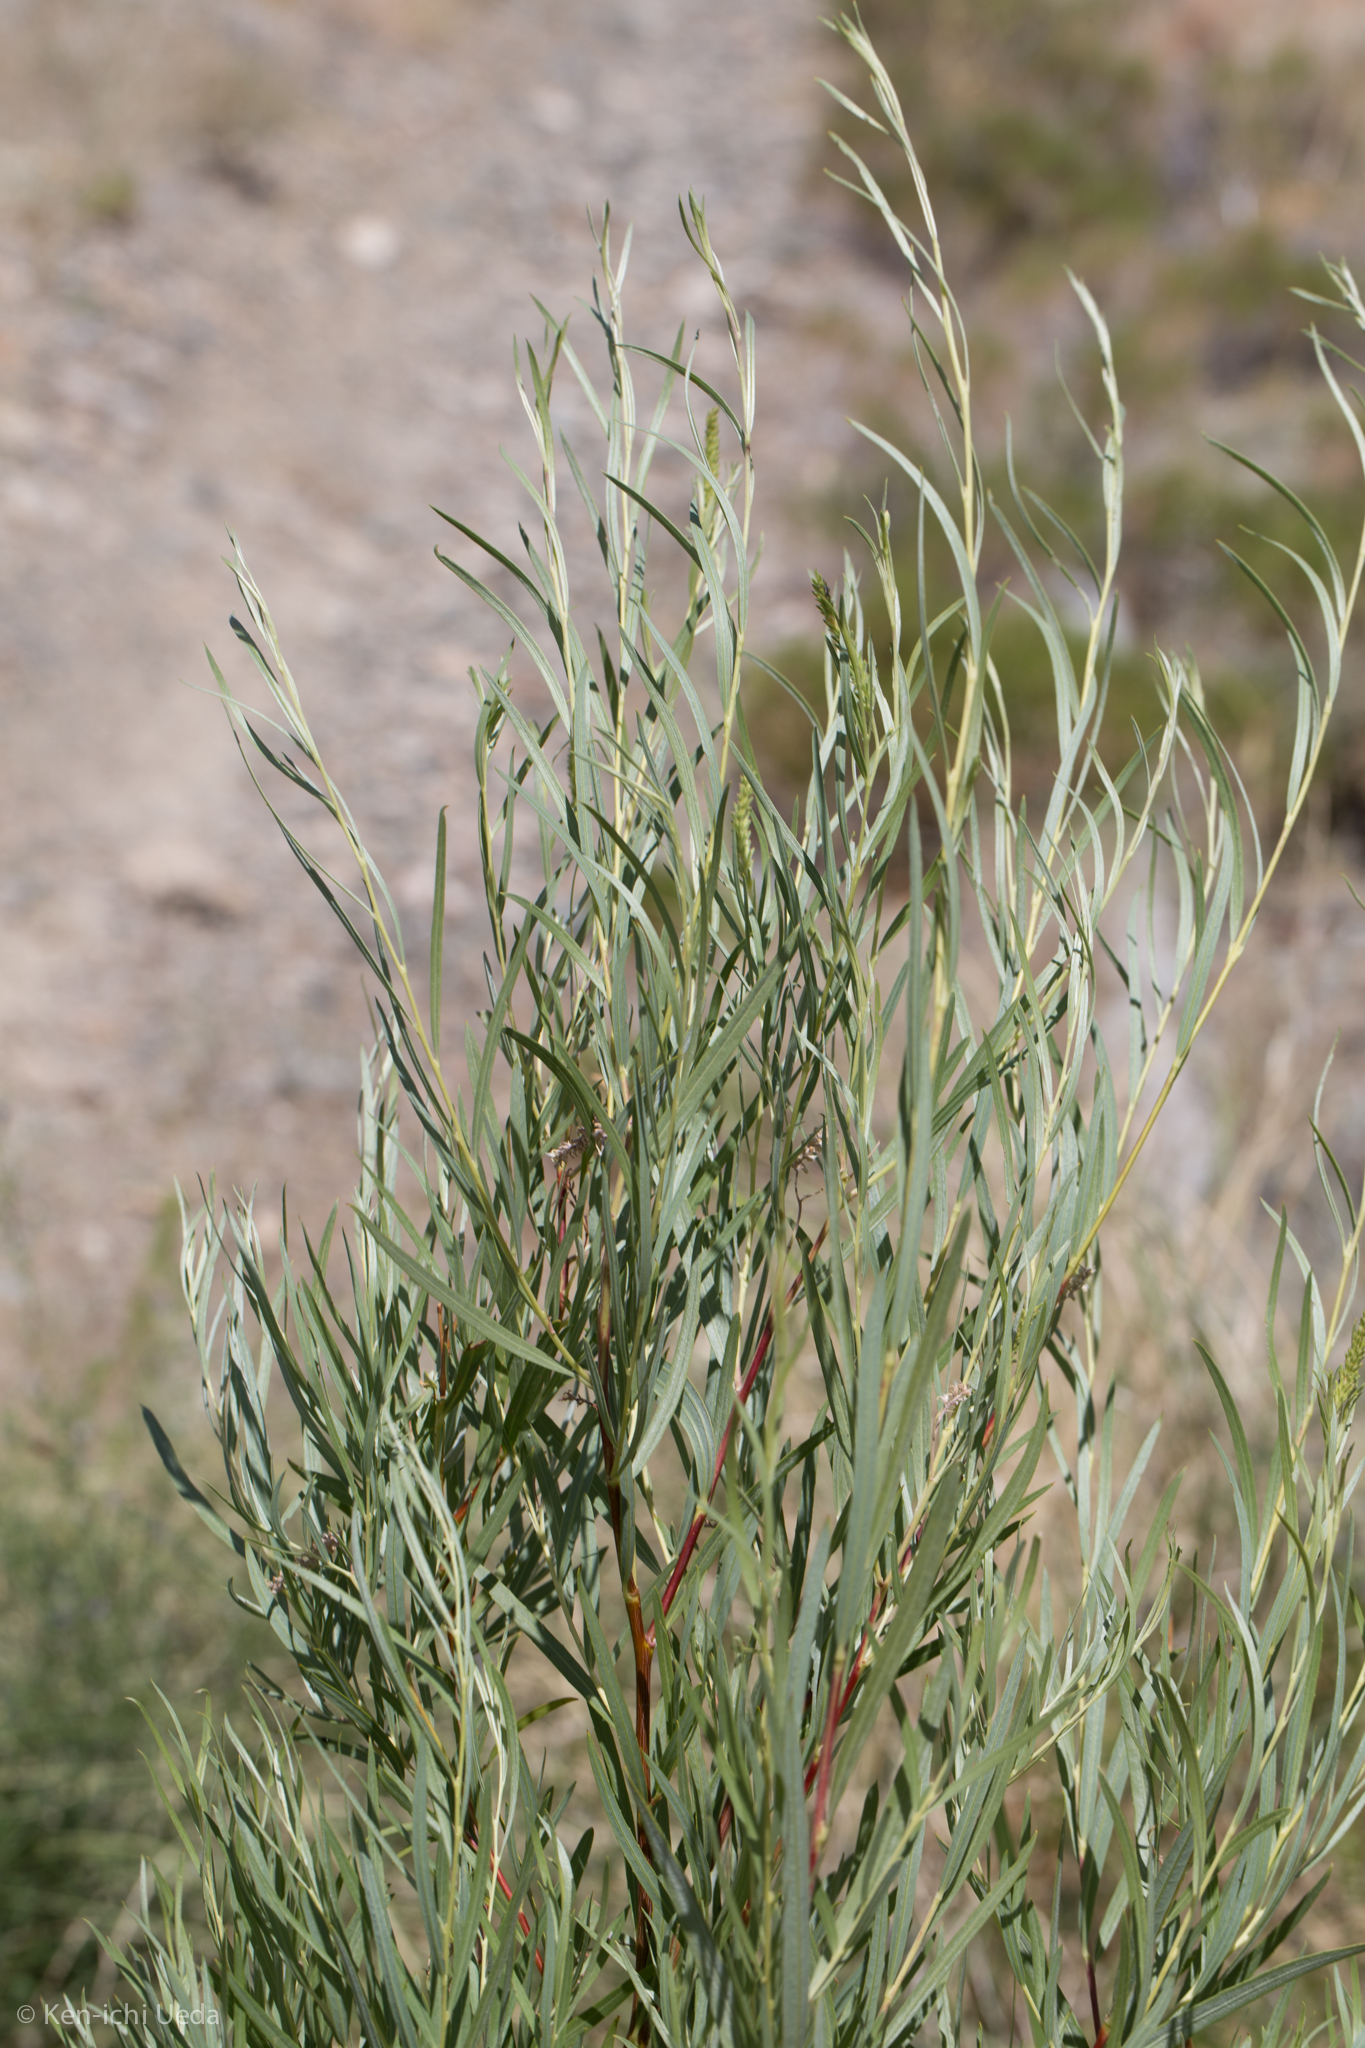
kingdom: Plantae
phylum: Tracheophyta
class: Magnoliopsida
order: Malpighiales
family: Salicaceae
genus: Salix
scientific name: Salix exigua
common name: Coyote willow
